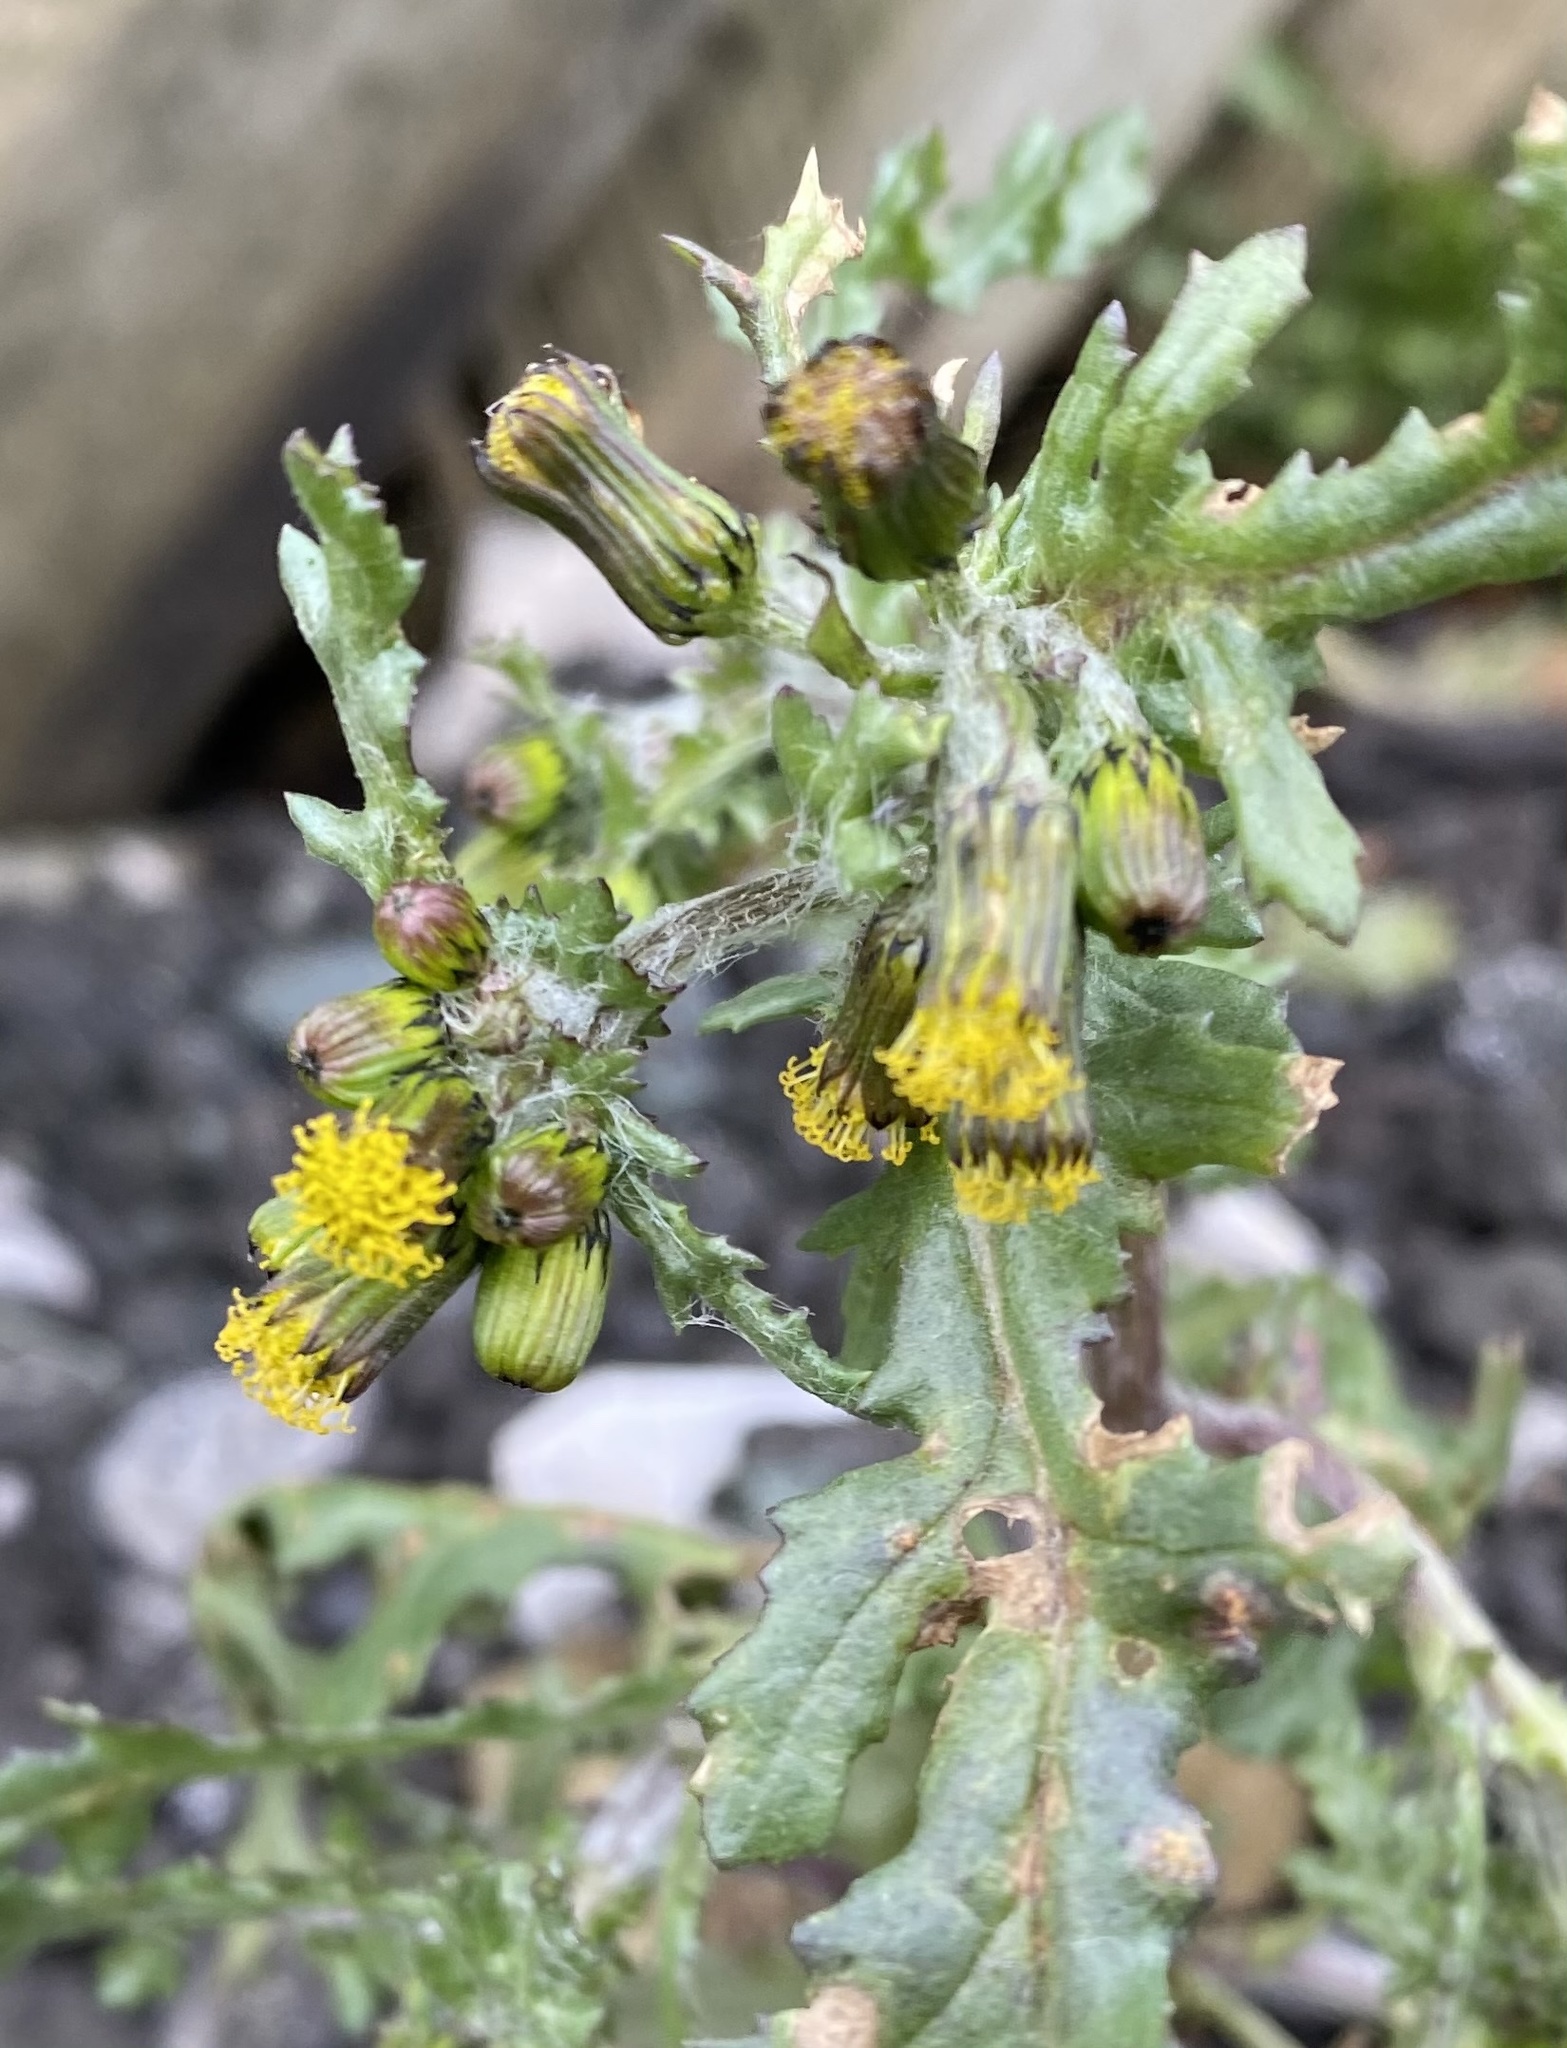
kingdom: Plantae
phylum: Tracheophyta
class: Magnoliopsida
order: Asterales
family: Asteraceae
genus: Senecio
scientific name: Senecio vulgaris
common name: Old-man-in-the-spring
